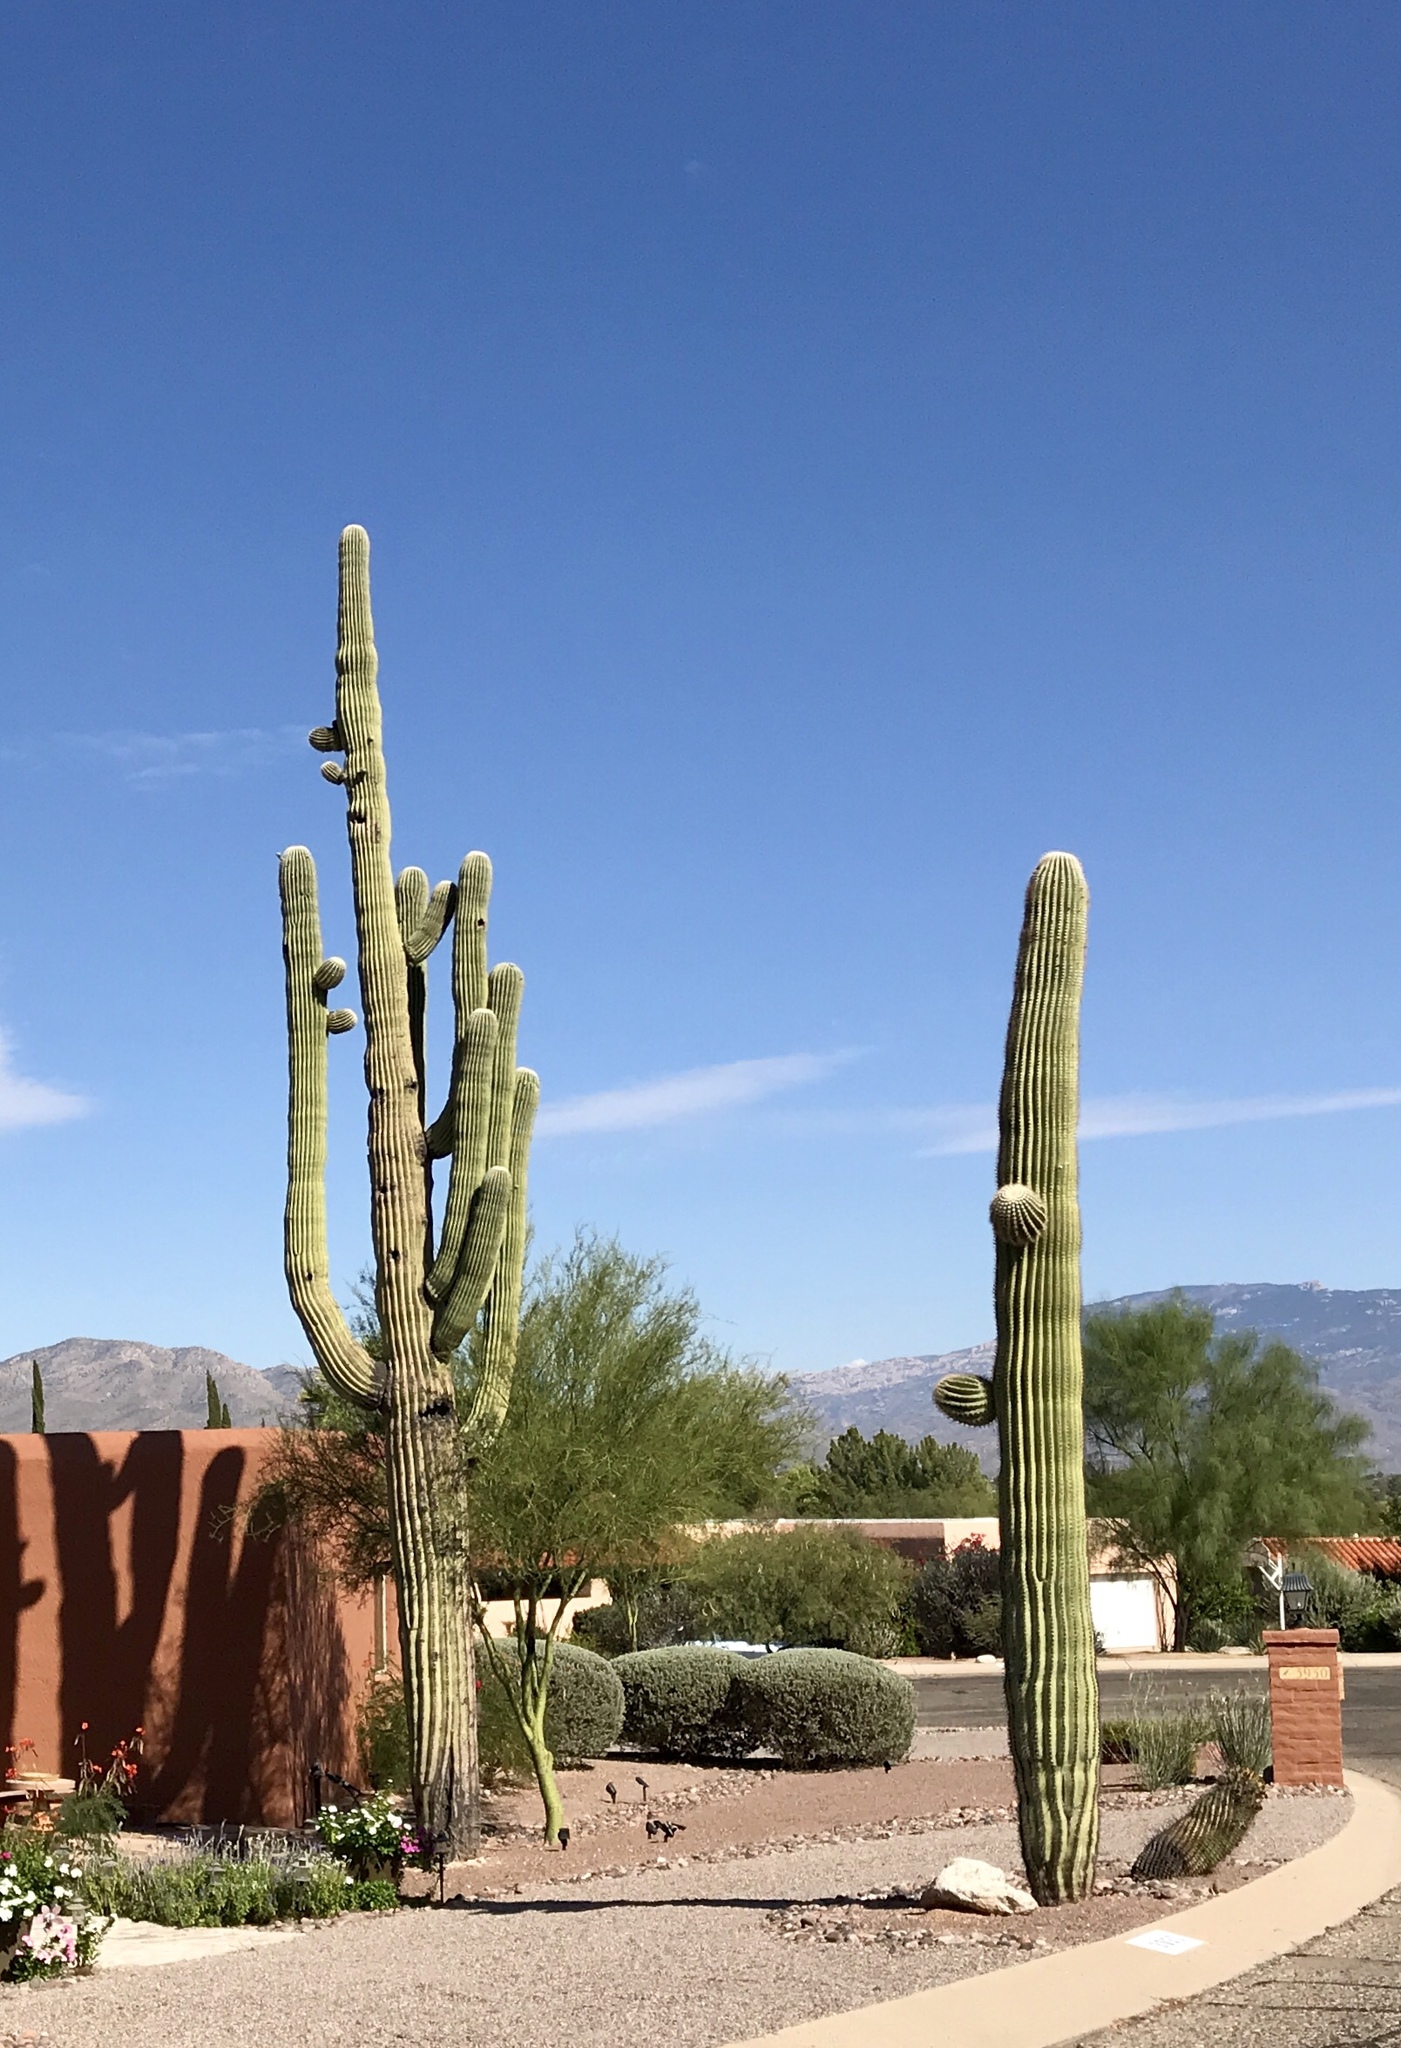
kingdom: Plantae
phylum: Tracheophyta
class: Magnoliopsida
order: Caryophyllales
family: Cactaceae
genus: Carnegiea
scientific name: Carnegiea gigantea
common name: Saguaro
